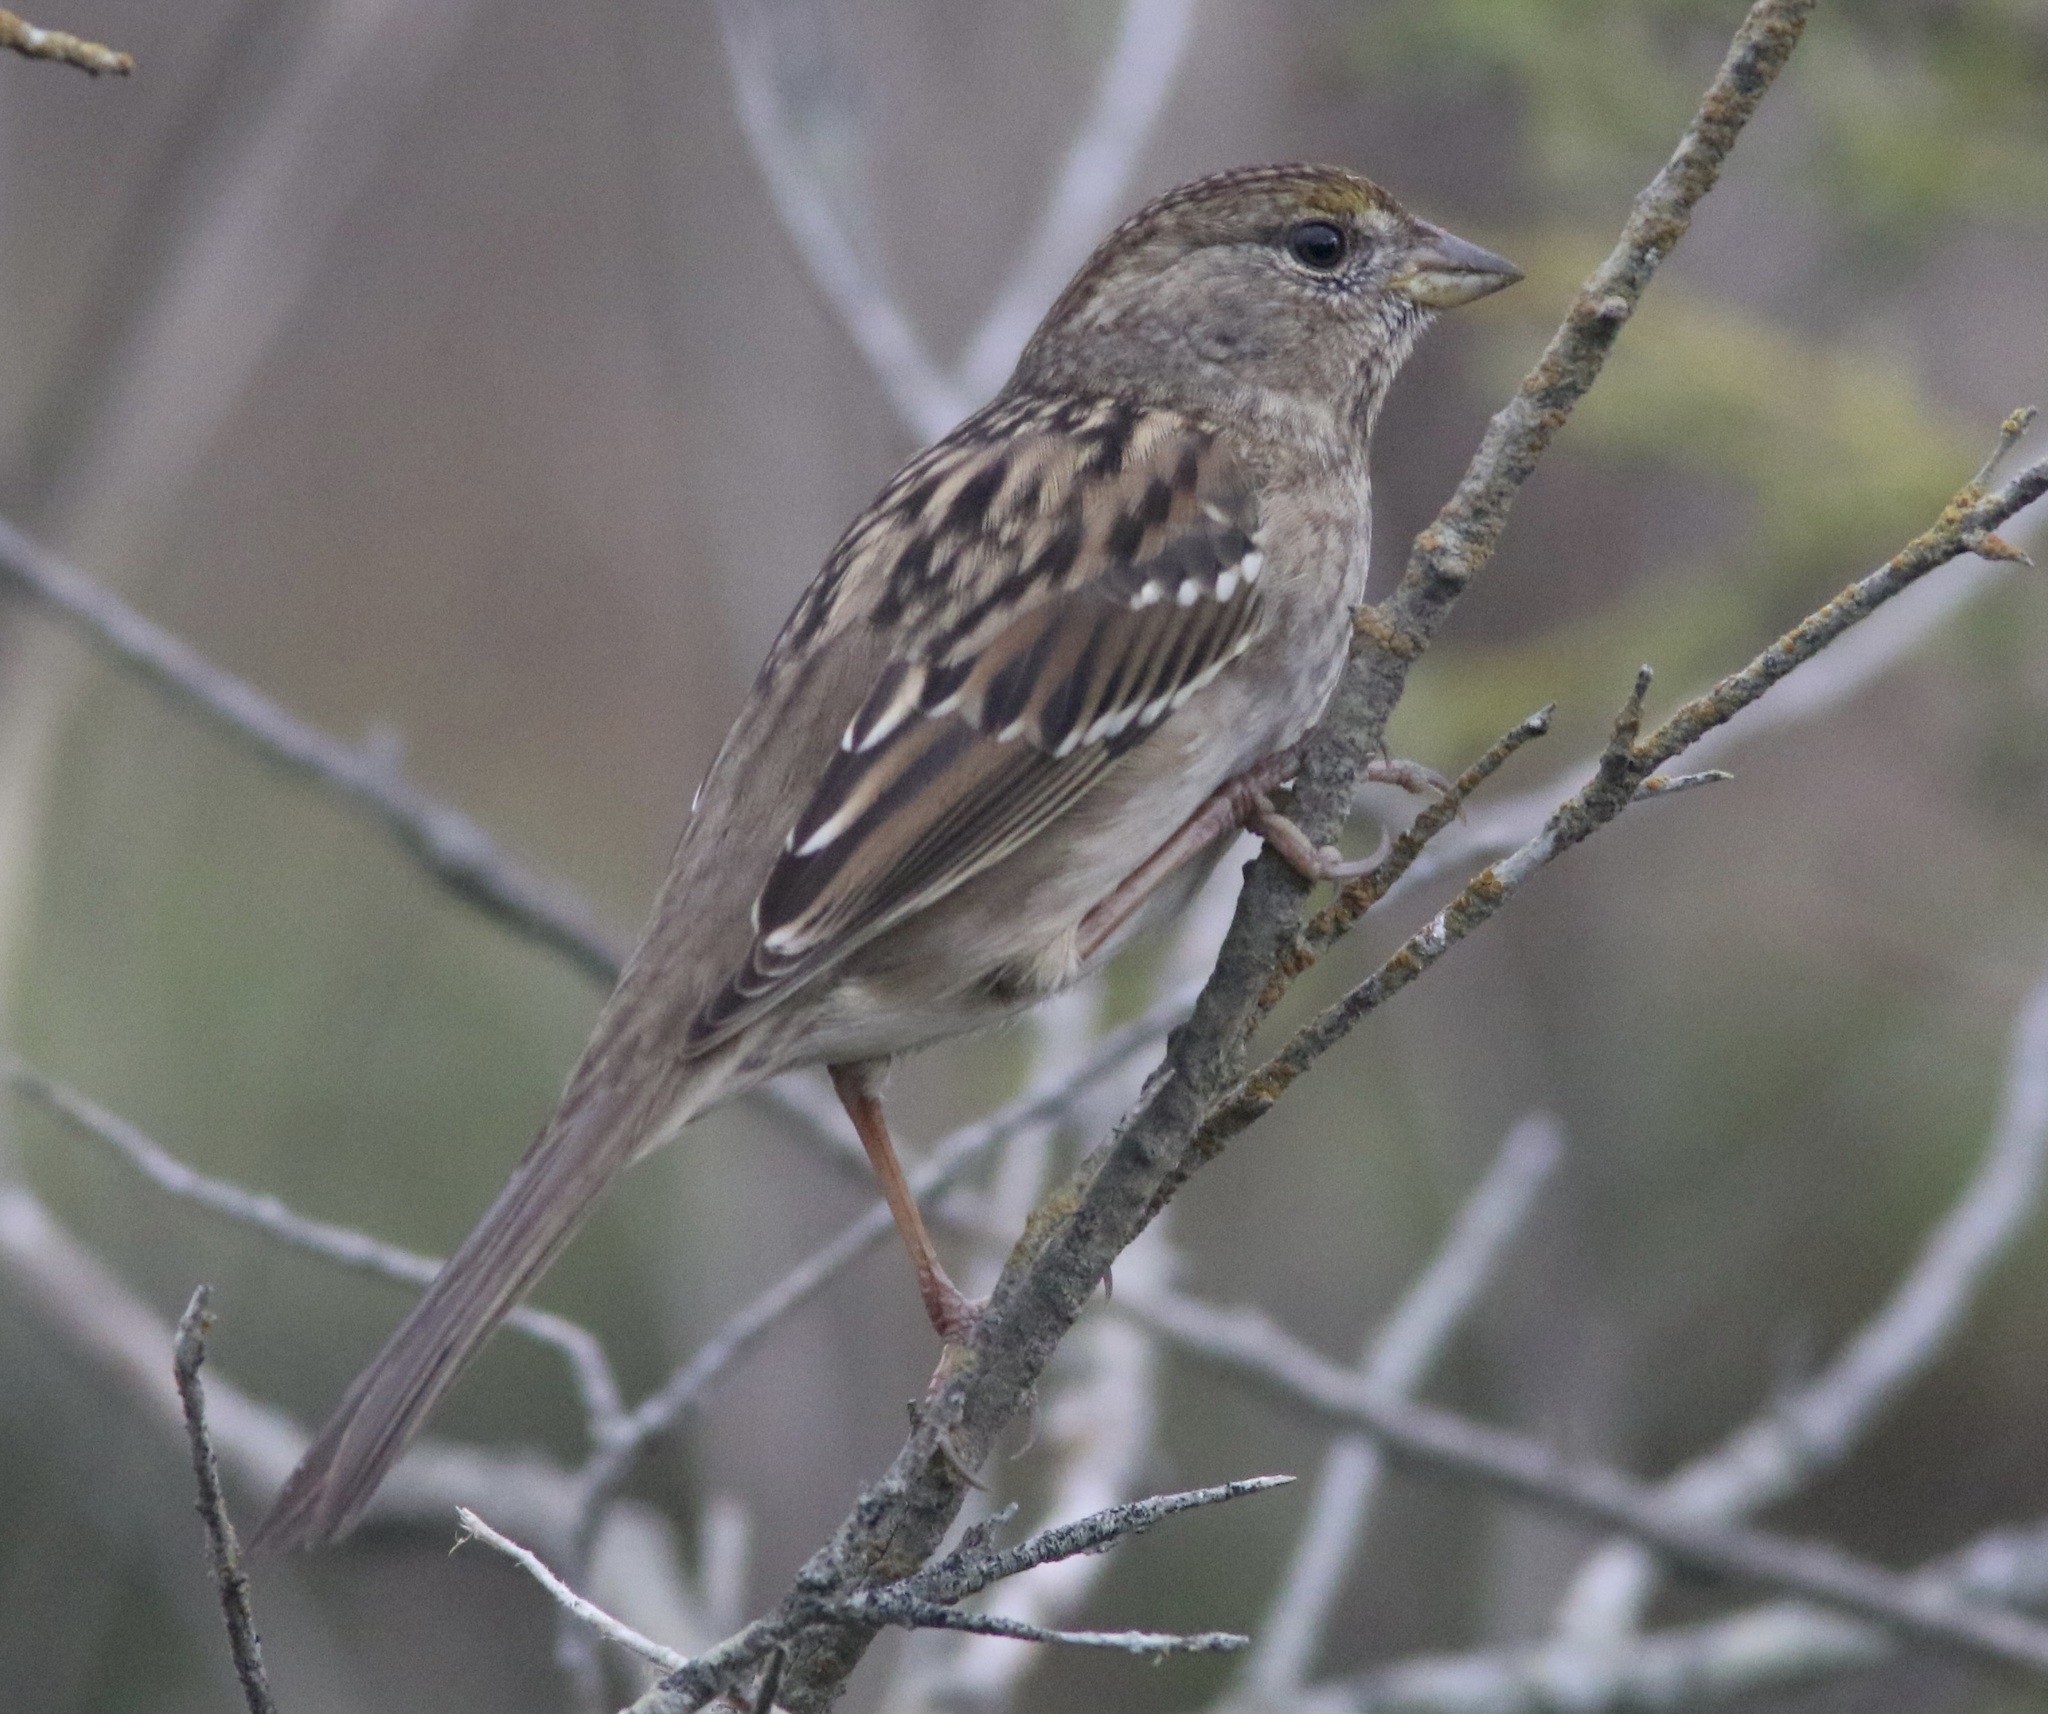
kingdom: Animalia
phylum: Chordata
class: Aves
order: Passeriformes
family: Passerellidae
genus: Zonotrichia
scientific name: Zonotrichia atricapilla
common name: Golden-crowned sparrow
